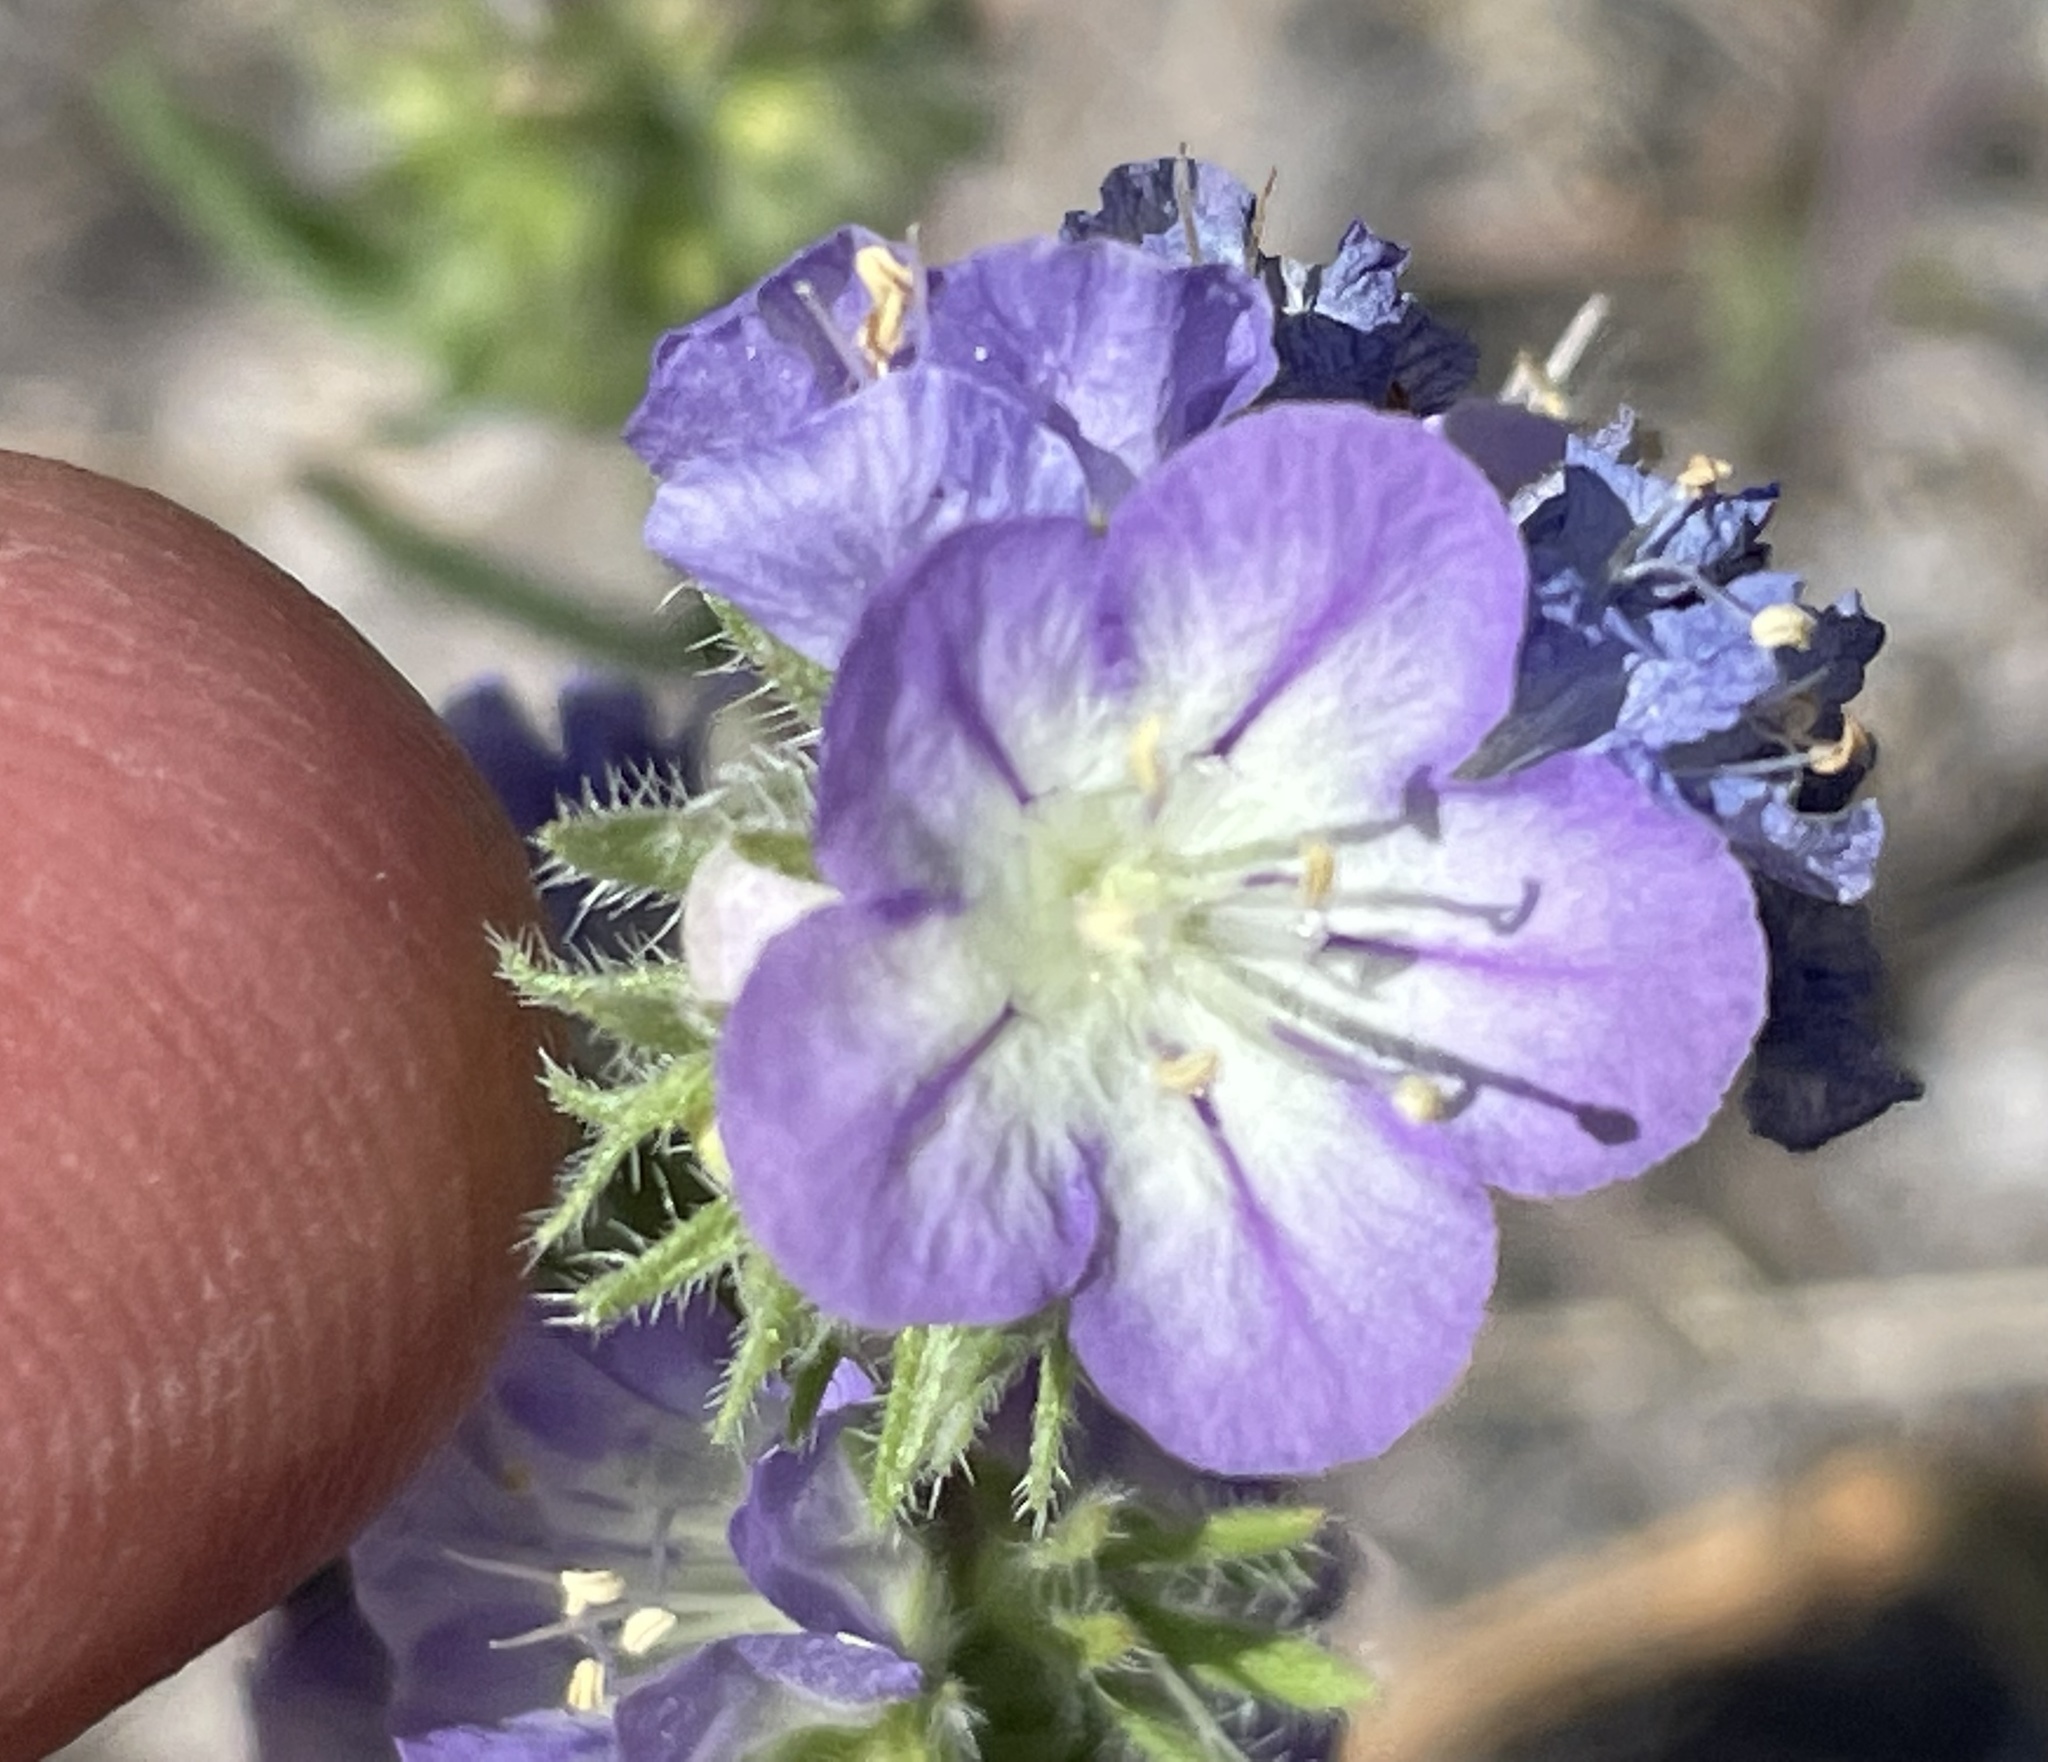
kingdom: Plantae
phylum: Tracheophyta
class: Magnoliopsida
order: Boraginales
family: Hydrophyllaceae
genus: Phacelia
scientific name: Phacelia linearis
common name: Linear-leaved phacelia
